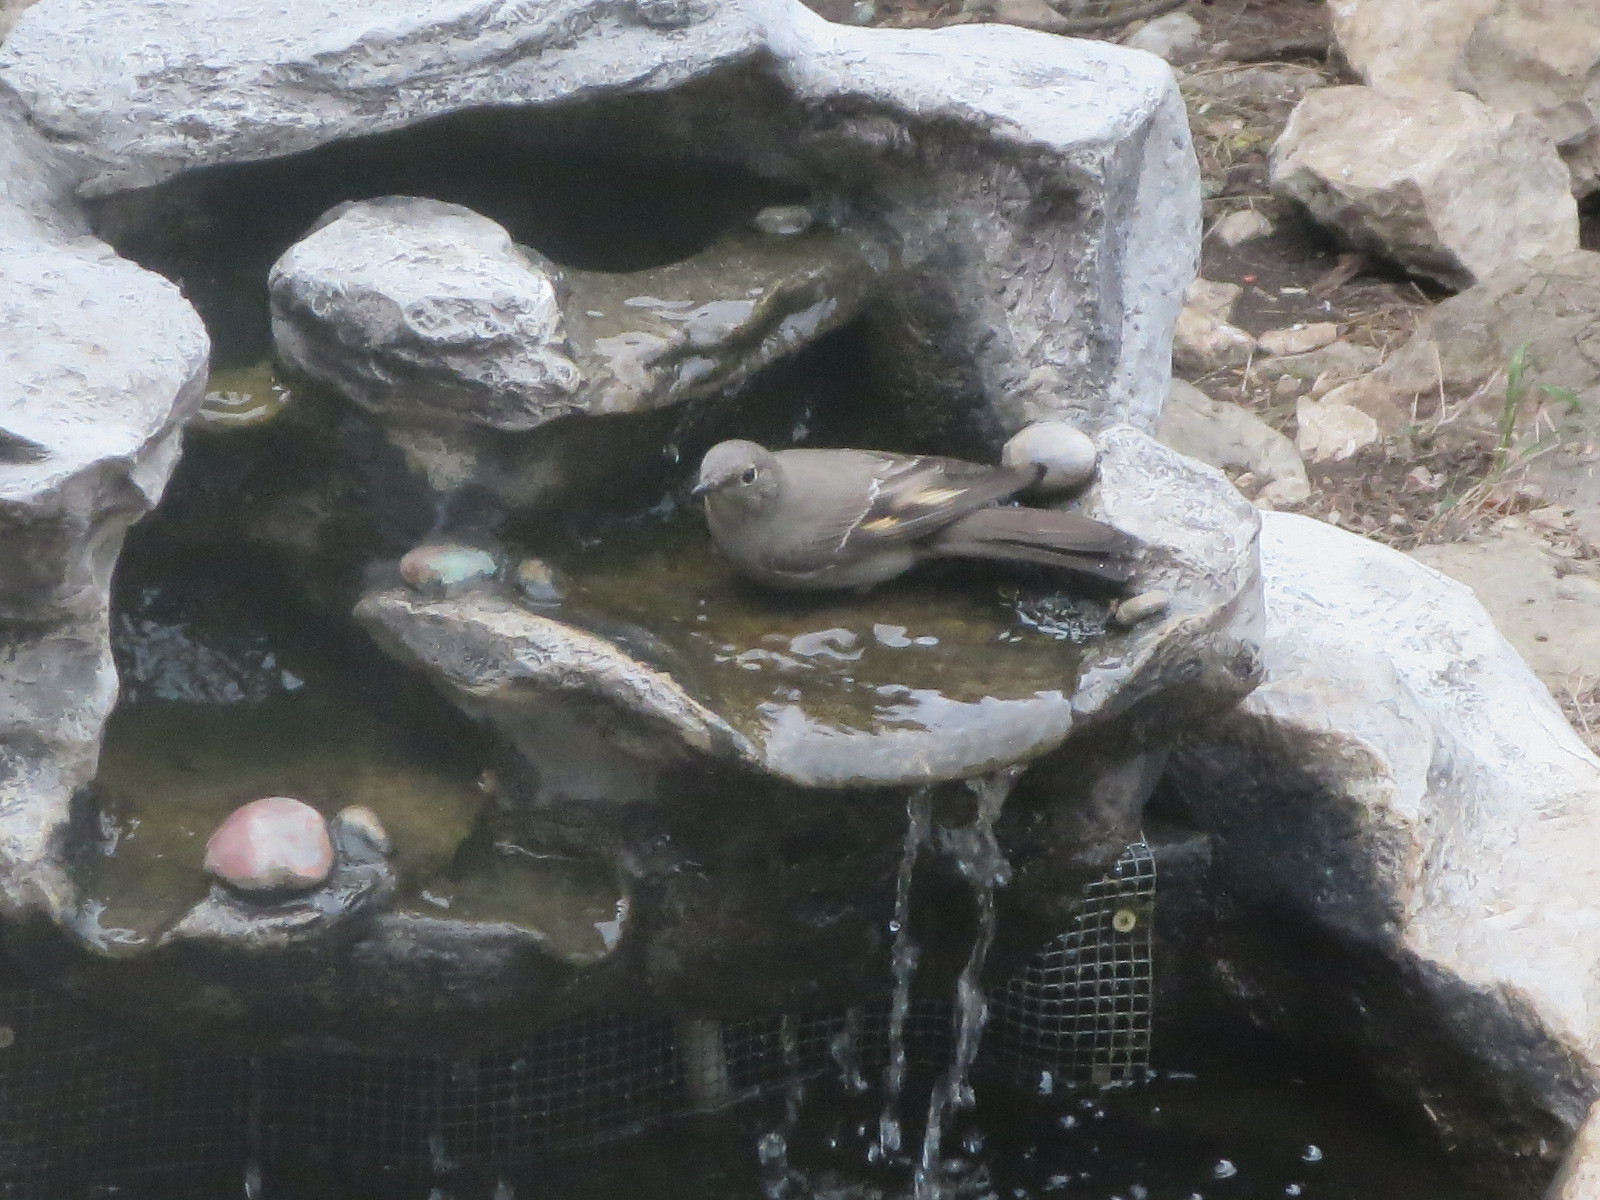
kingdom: Animalia
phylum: Chordata
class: Aves
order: Passeriformes
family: Turdidae
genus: Myadestes
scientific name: Myadestes townsendi
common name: Townsend's solitaire
